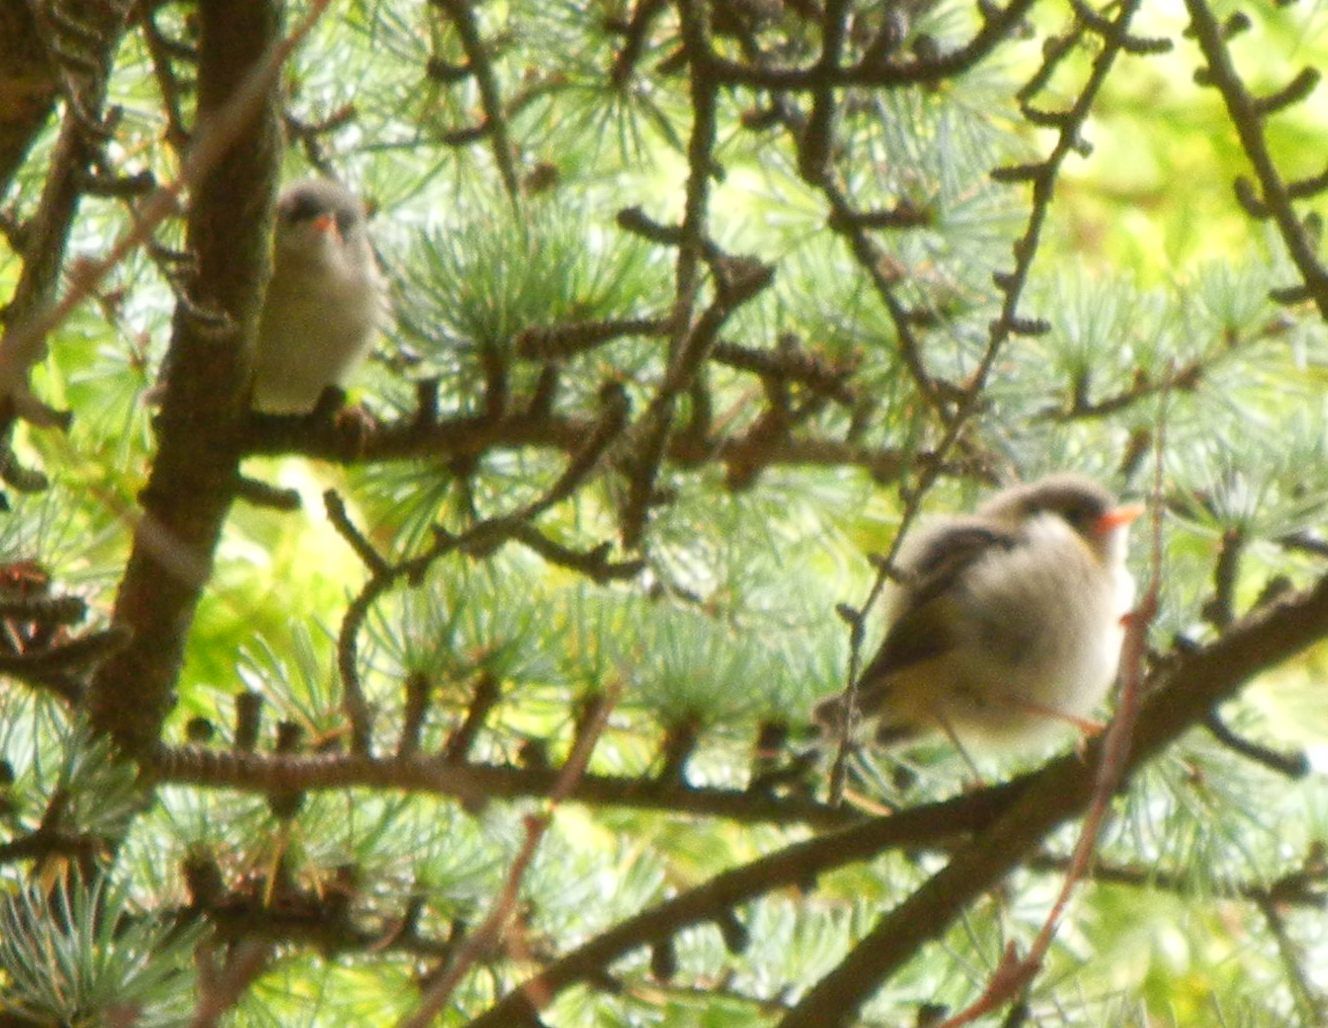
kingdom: Animalia
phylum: Chordata
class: Aves
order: Passeriformes
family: Regulidae
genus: Regulus
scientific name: Regulus regulus
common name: Goldcrest
